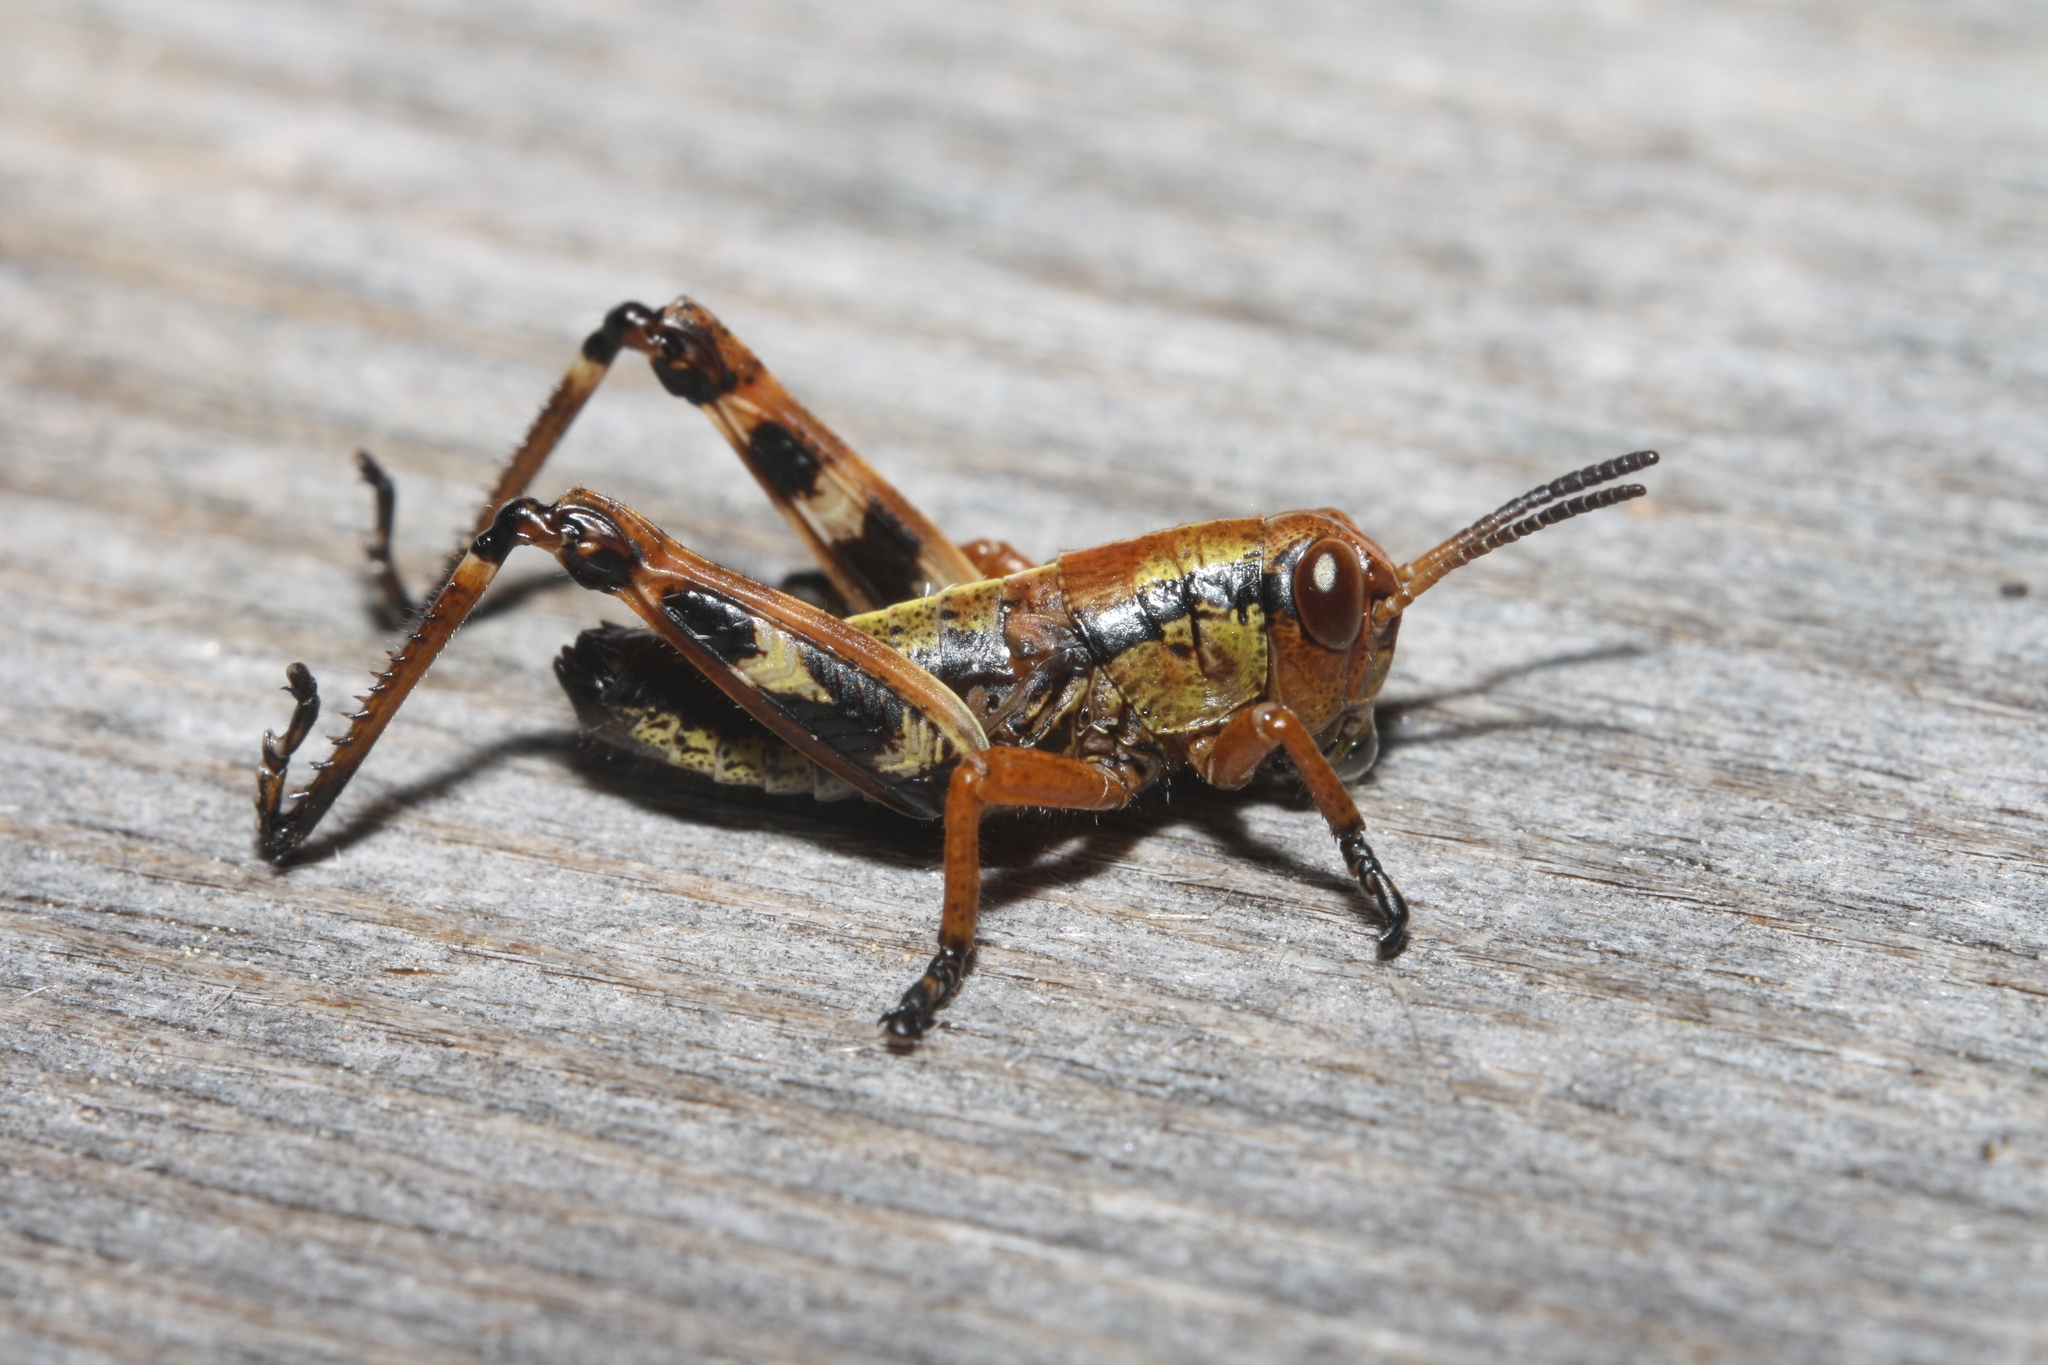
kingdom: Animalia
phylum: Arthropoda
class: Insecta
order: Orthoptera
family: Acrididae
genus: Miramella
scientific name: Miramella carinthiaca
